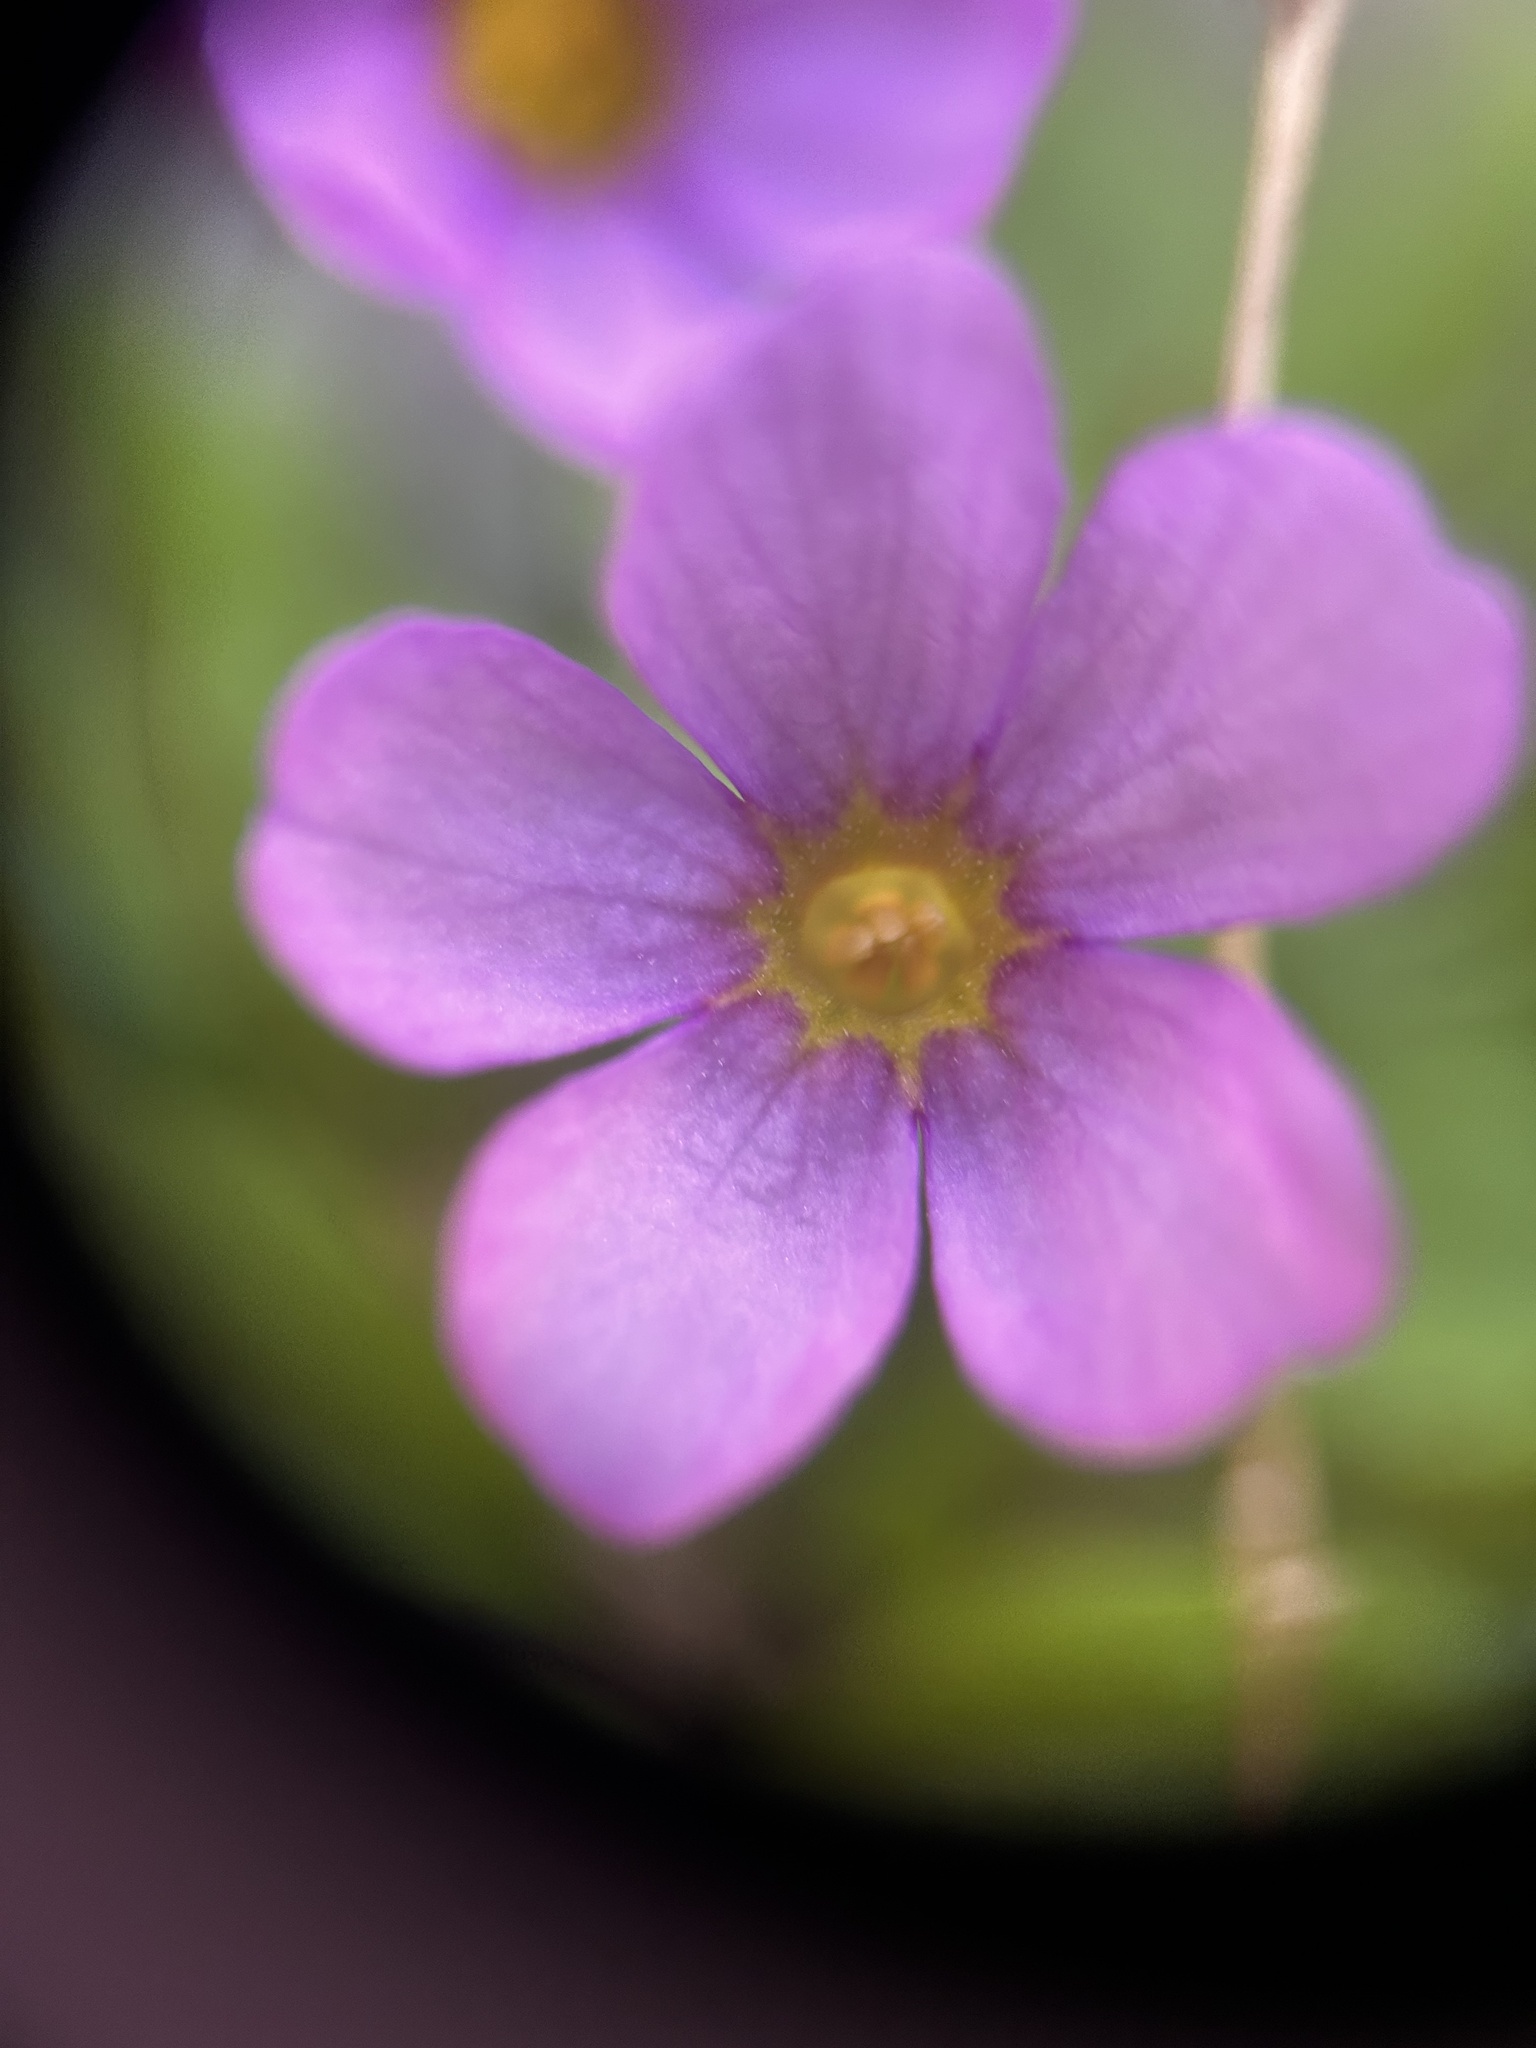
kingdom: Plantae
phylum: Tracheophyta
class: Magnoliopsida
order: Ericales
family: Primulaceae
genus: Primula
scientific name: Primula maguirei
